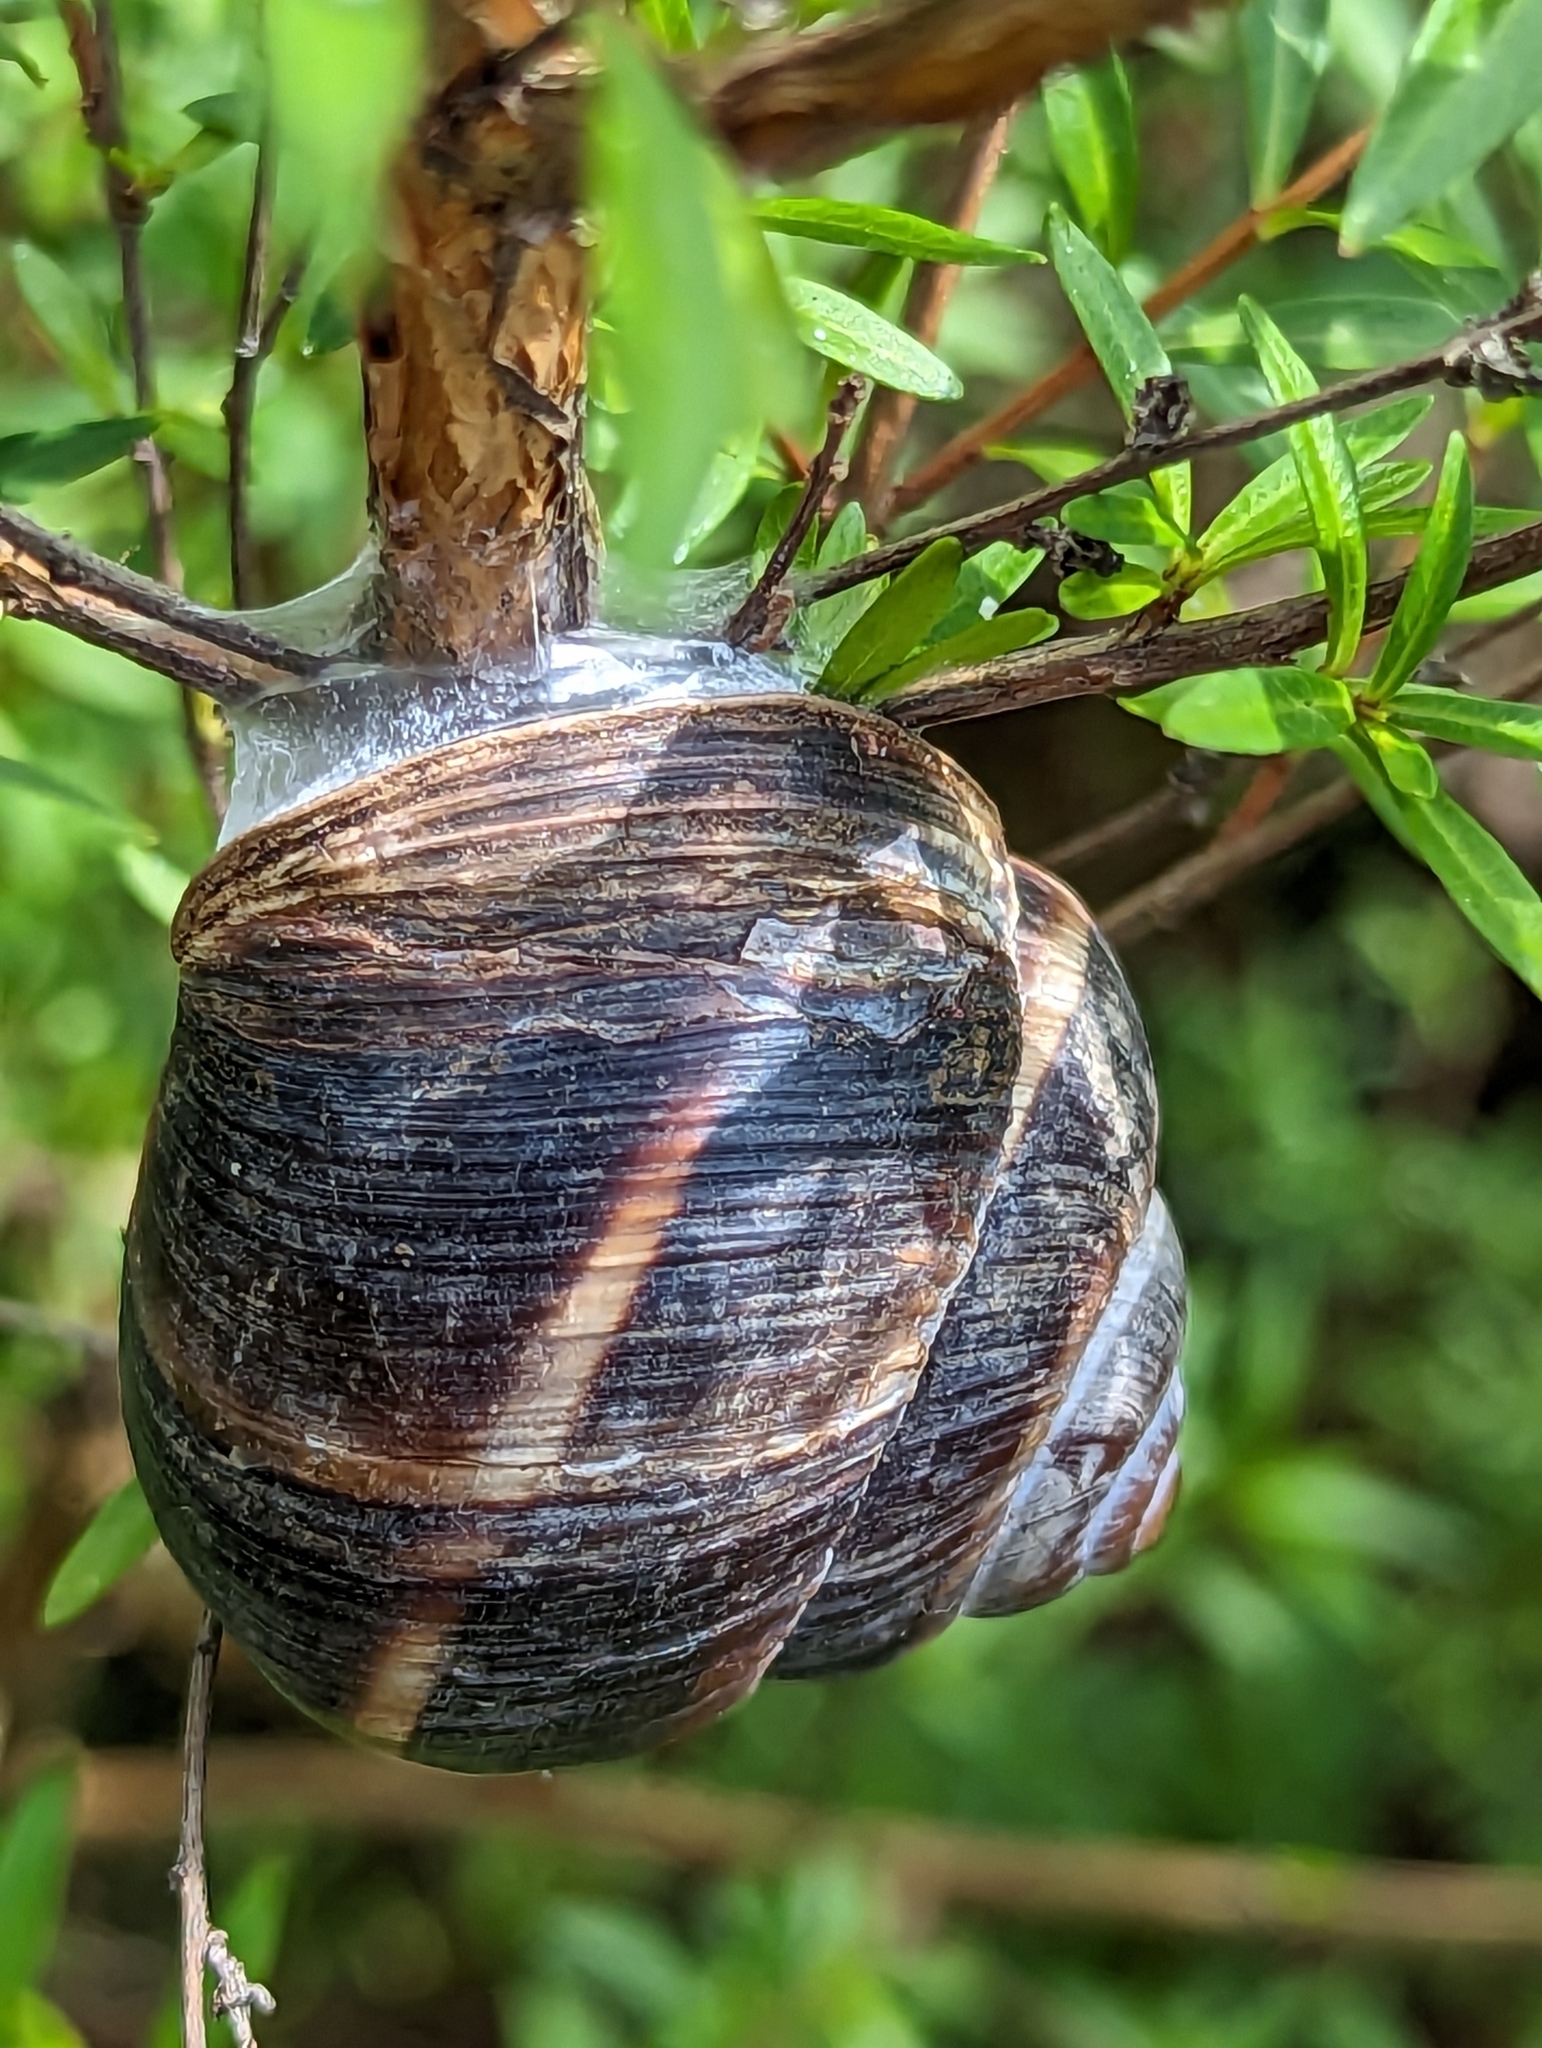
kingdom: Animalia
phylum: Mollusca
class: Gastropoda
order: Stylommatophora
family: Helicidae
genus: Helix
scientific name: Helix lucorum
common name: Turkish snail
